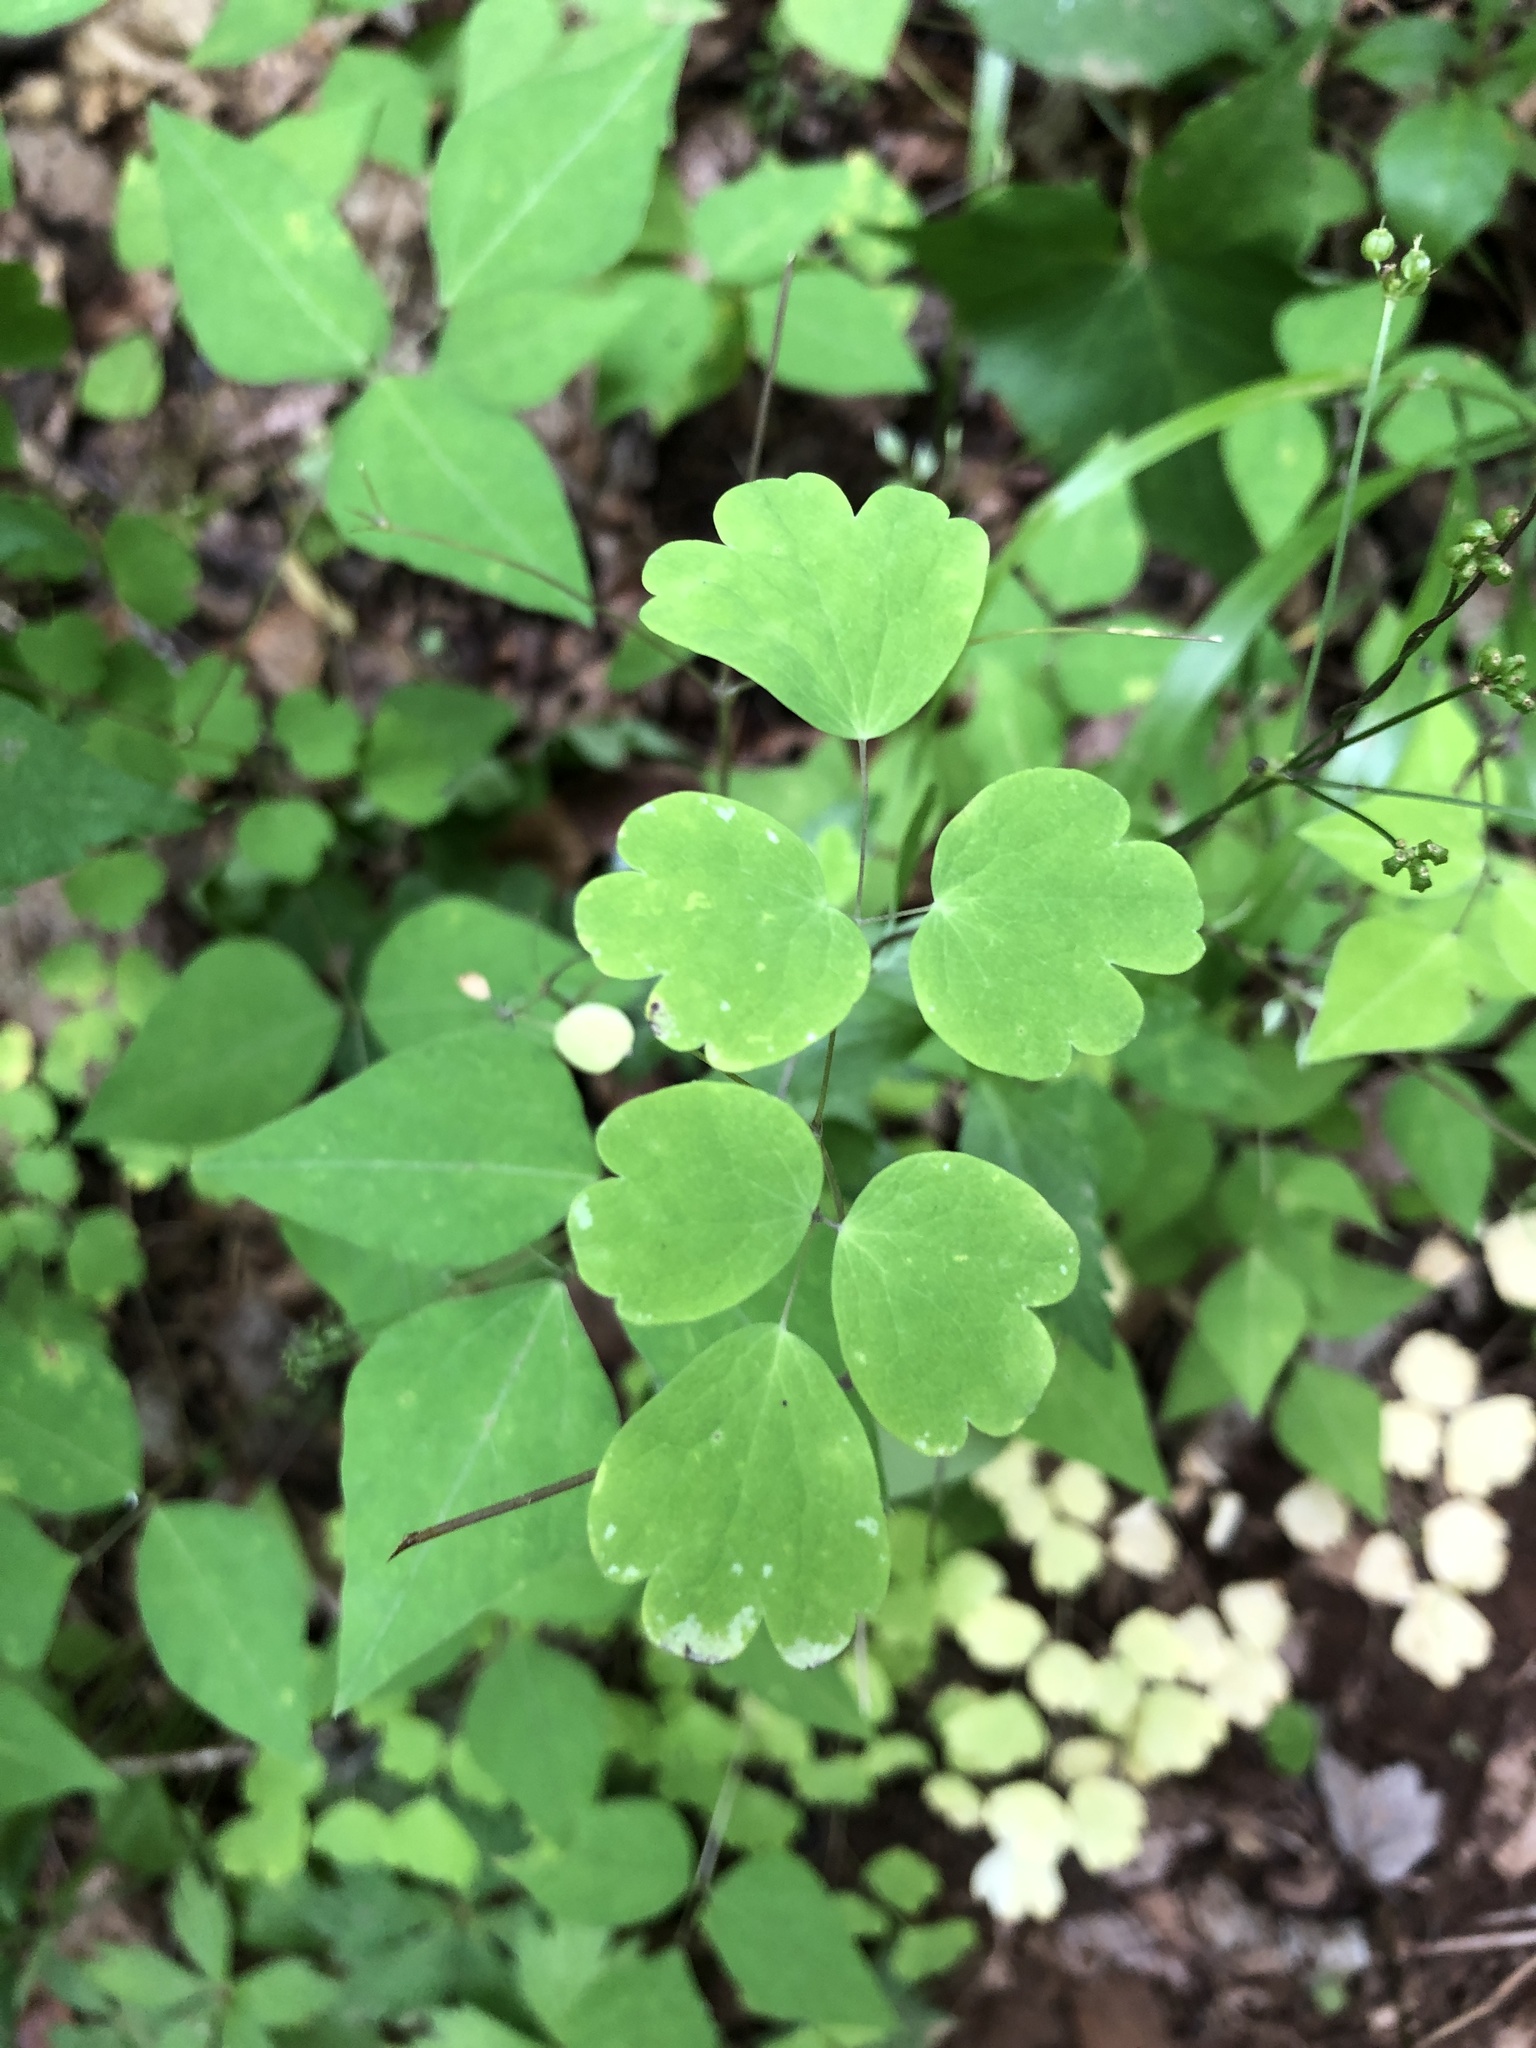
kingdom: Plantae
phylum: Tracheophyta
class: Magnoliopsida
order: Ranunculales
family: Ranunculaceae
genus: Thalictrum
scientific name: Thalictrum dioicum
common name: Early meadow-rue
